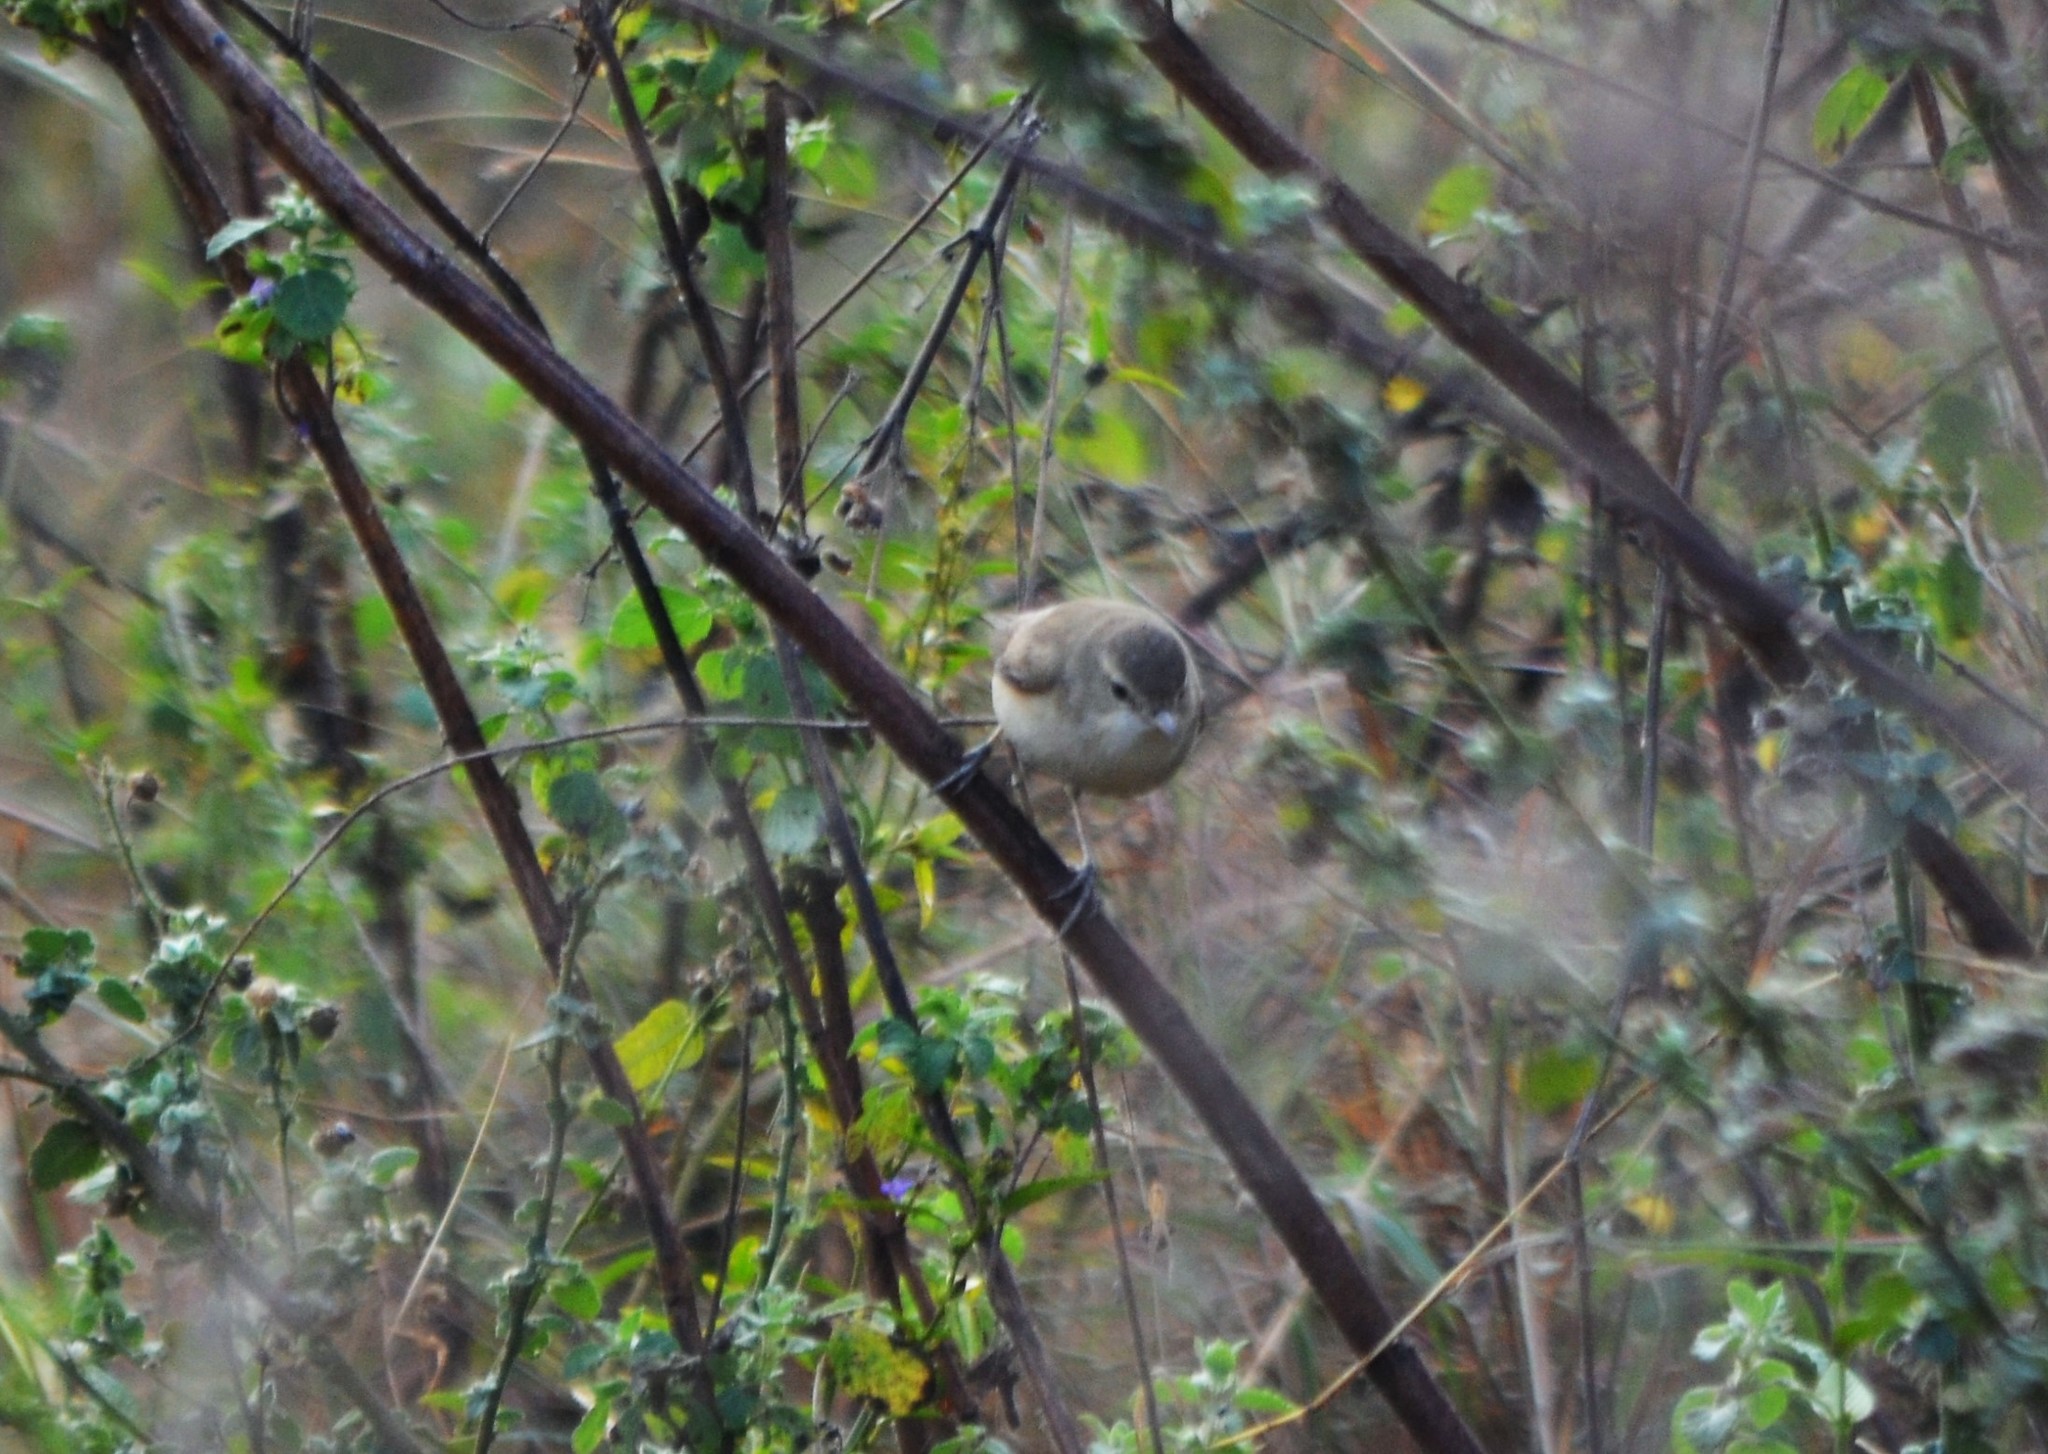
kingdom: Animalia
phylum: Chordata
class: Aves
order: Passeriformes
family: Acrocephalidae
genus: Iduna
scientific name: Iduna caligata
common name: Booted warbler
